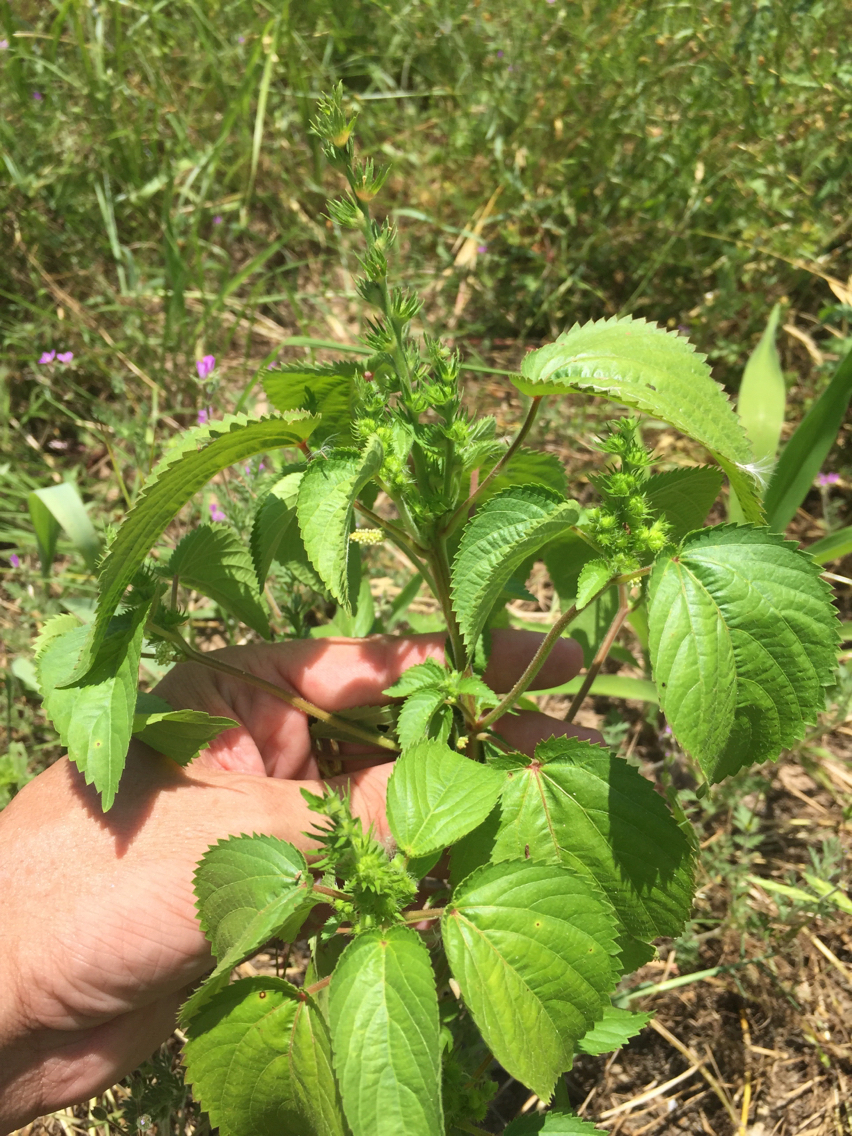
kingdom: Plantae
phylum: Tracheophyta
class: Magnoliopsida
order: Malpighiales
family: Euphorbiaceae
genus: Acalypha
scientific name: Acalypha ostryifolia
